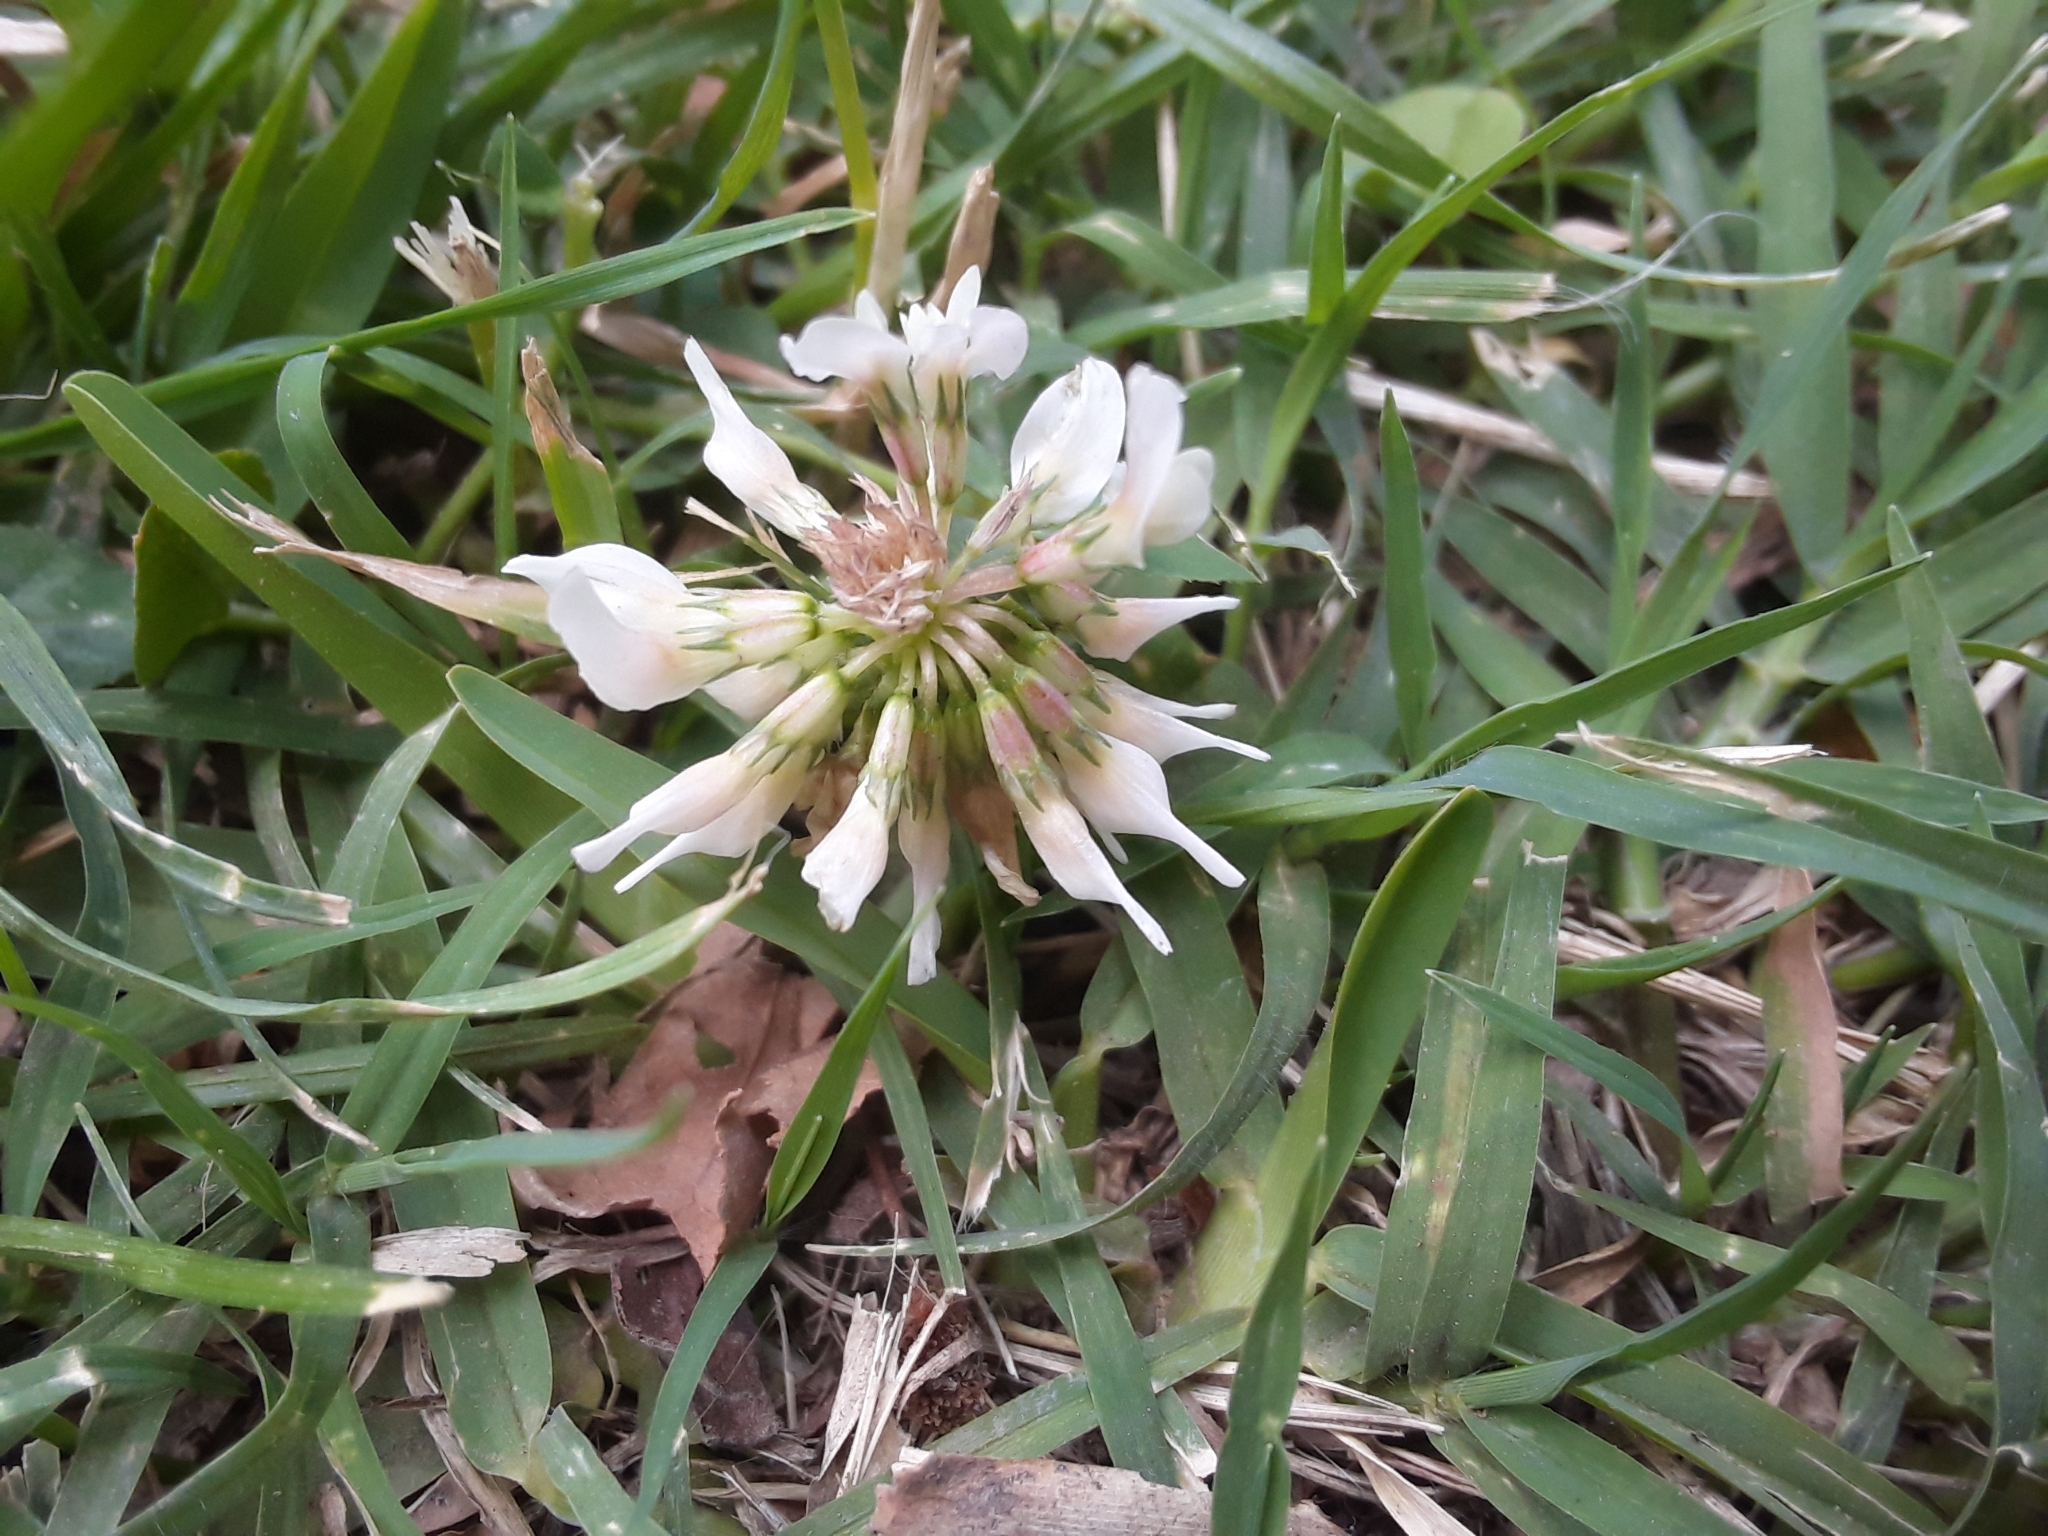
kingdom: Plantae
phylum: Tracheophyta
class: Magnoliopsida
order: Fabales
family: Fabaceae
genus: Trifolium
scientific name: Trifolium repens
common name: White clover
